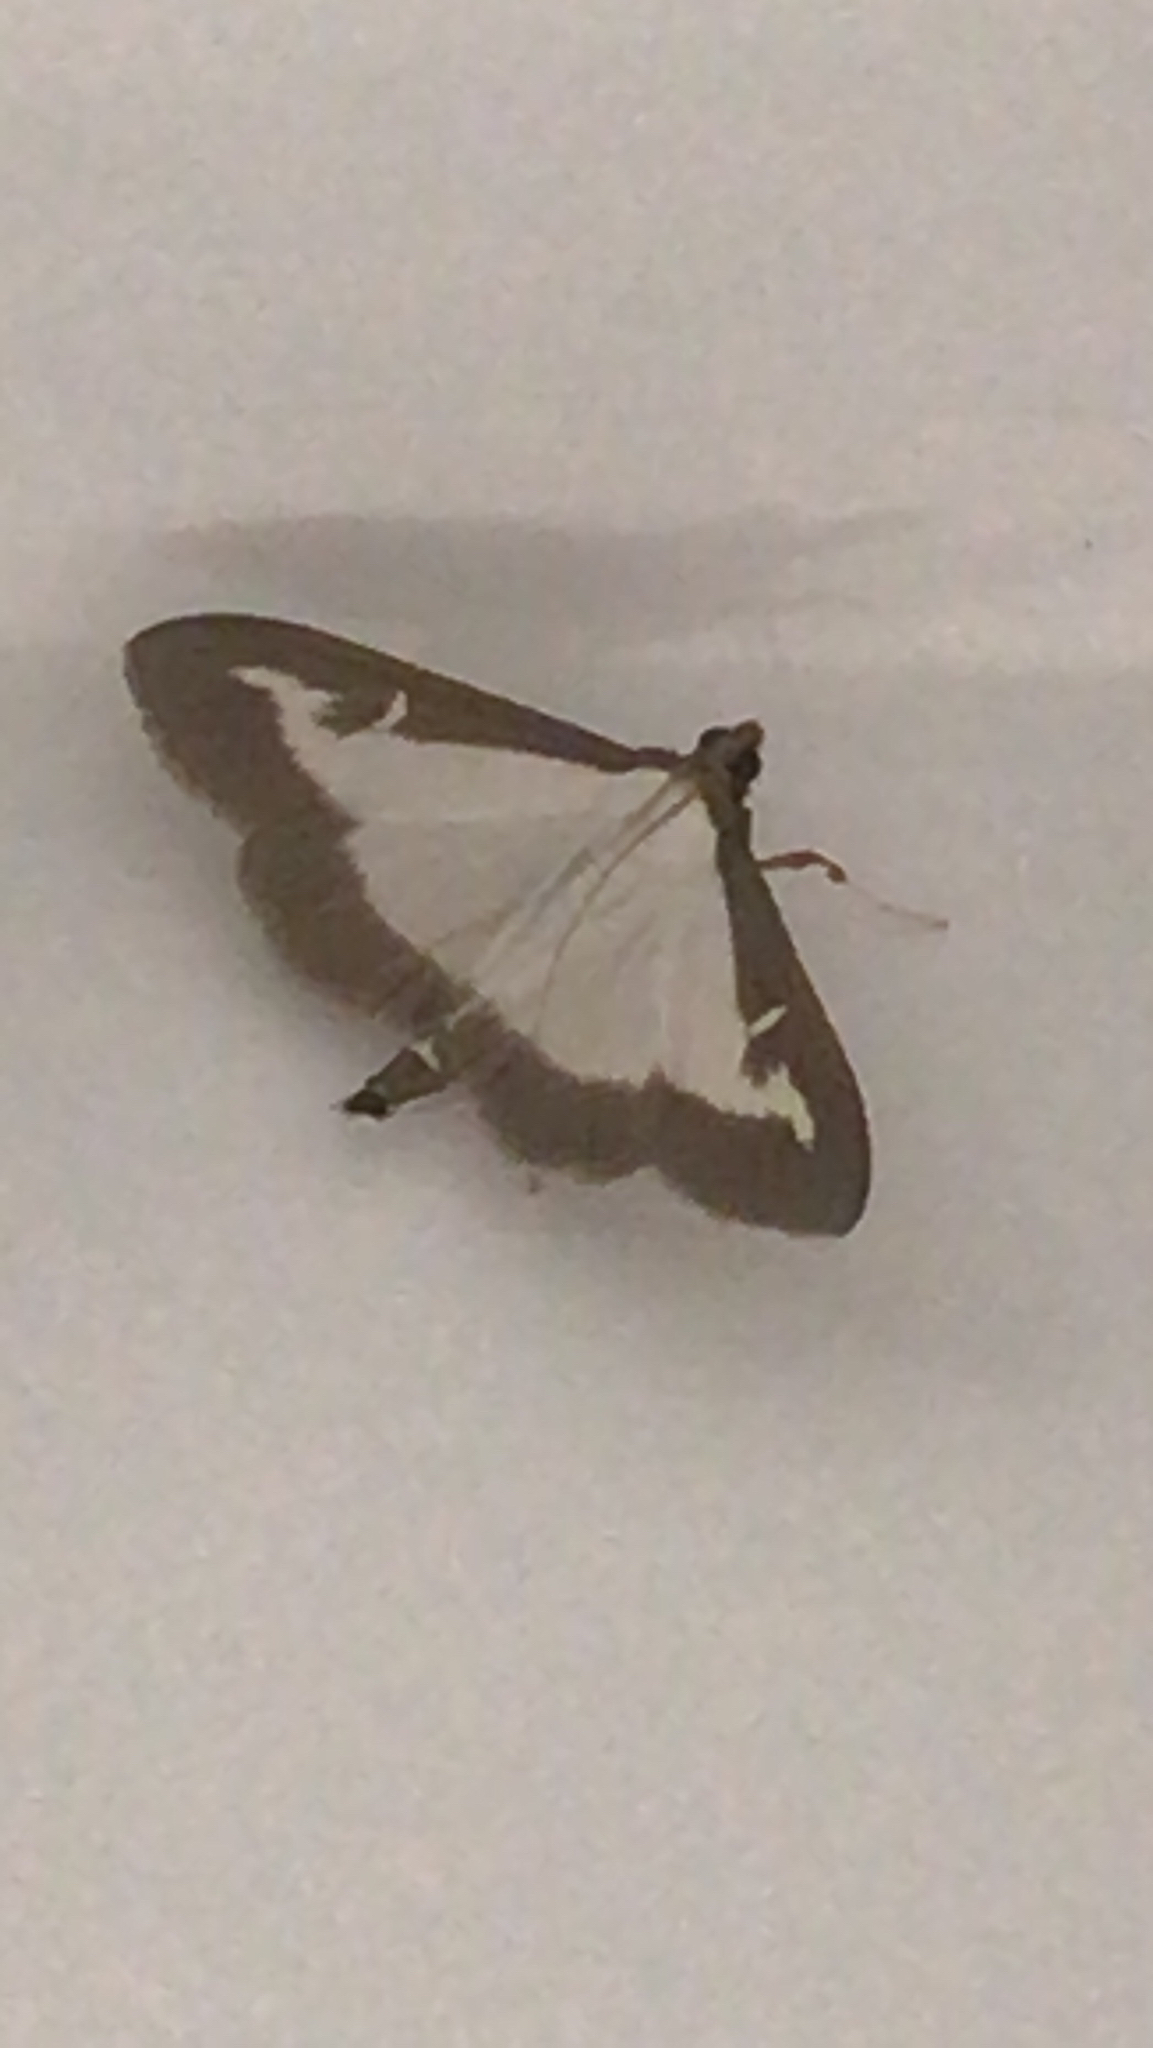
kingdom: Animalia
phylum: Arthropoda
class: Insecta
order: Lepidoptera
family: Crambidae
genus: Cydalima
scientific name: Cydalima perspectalis
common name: Box tree moth
